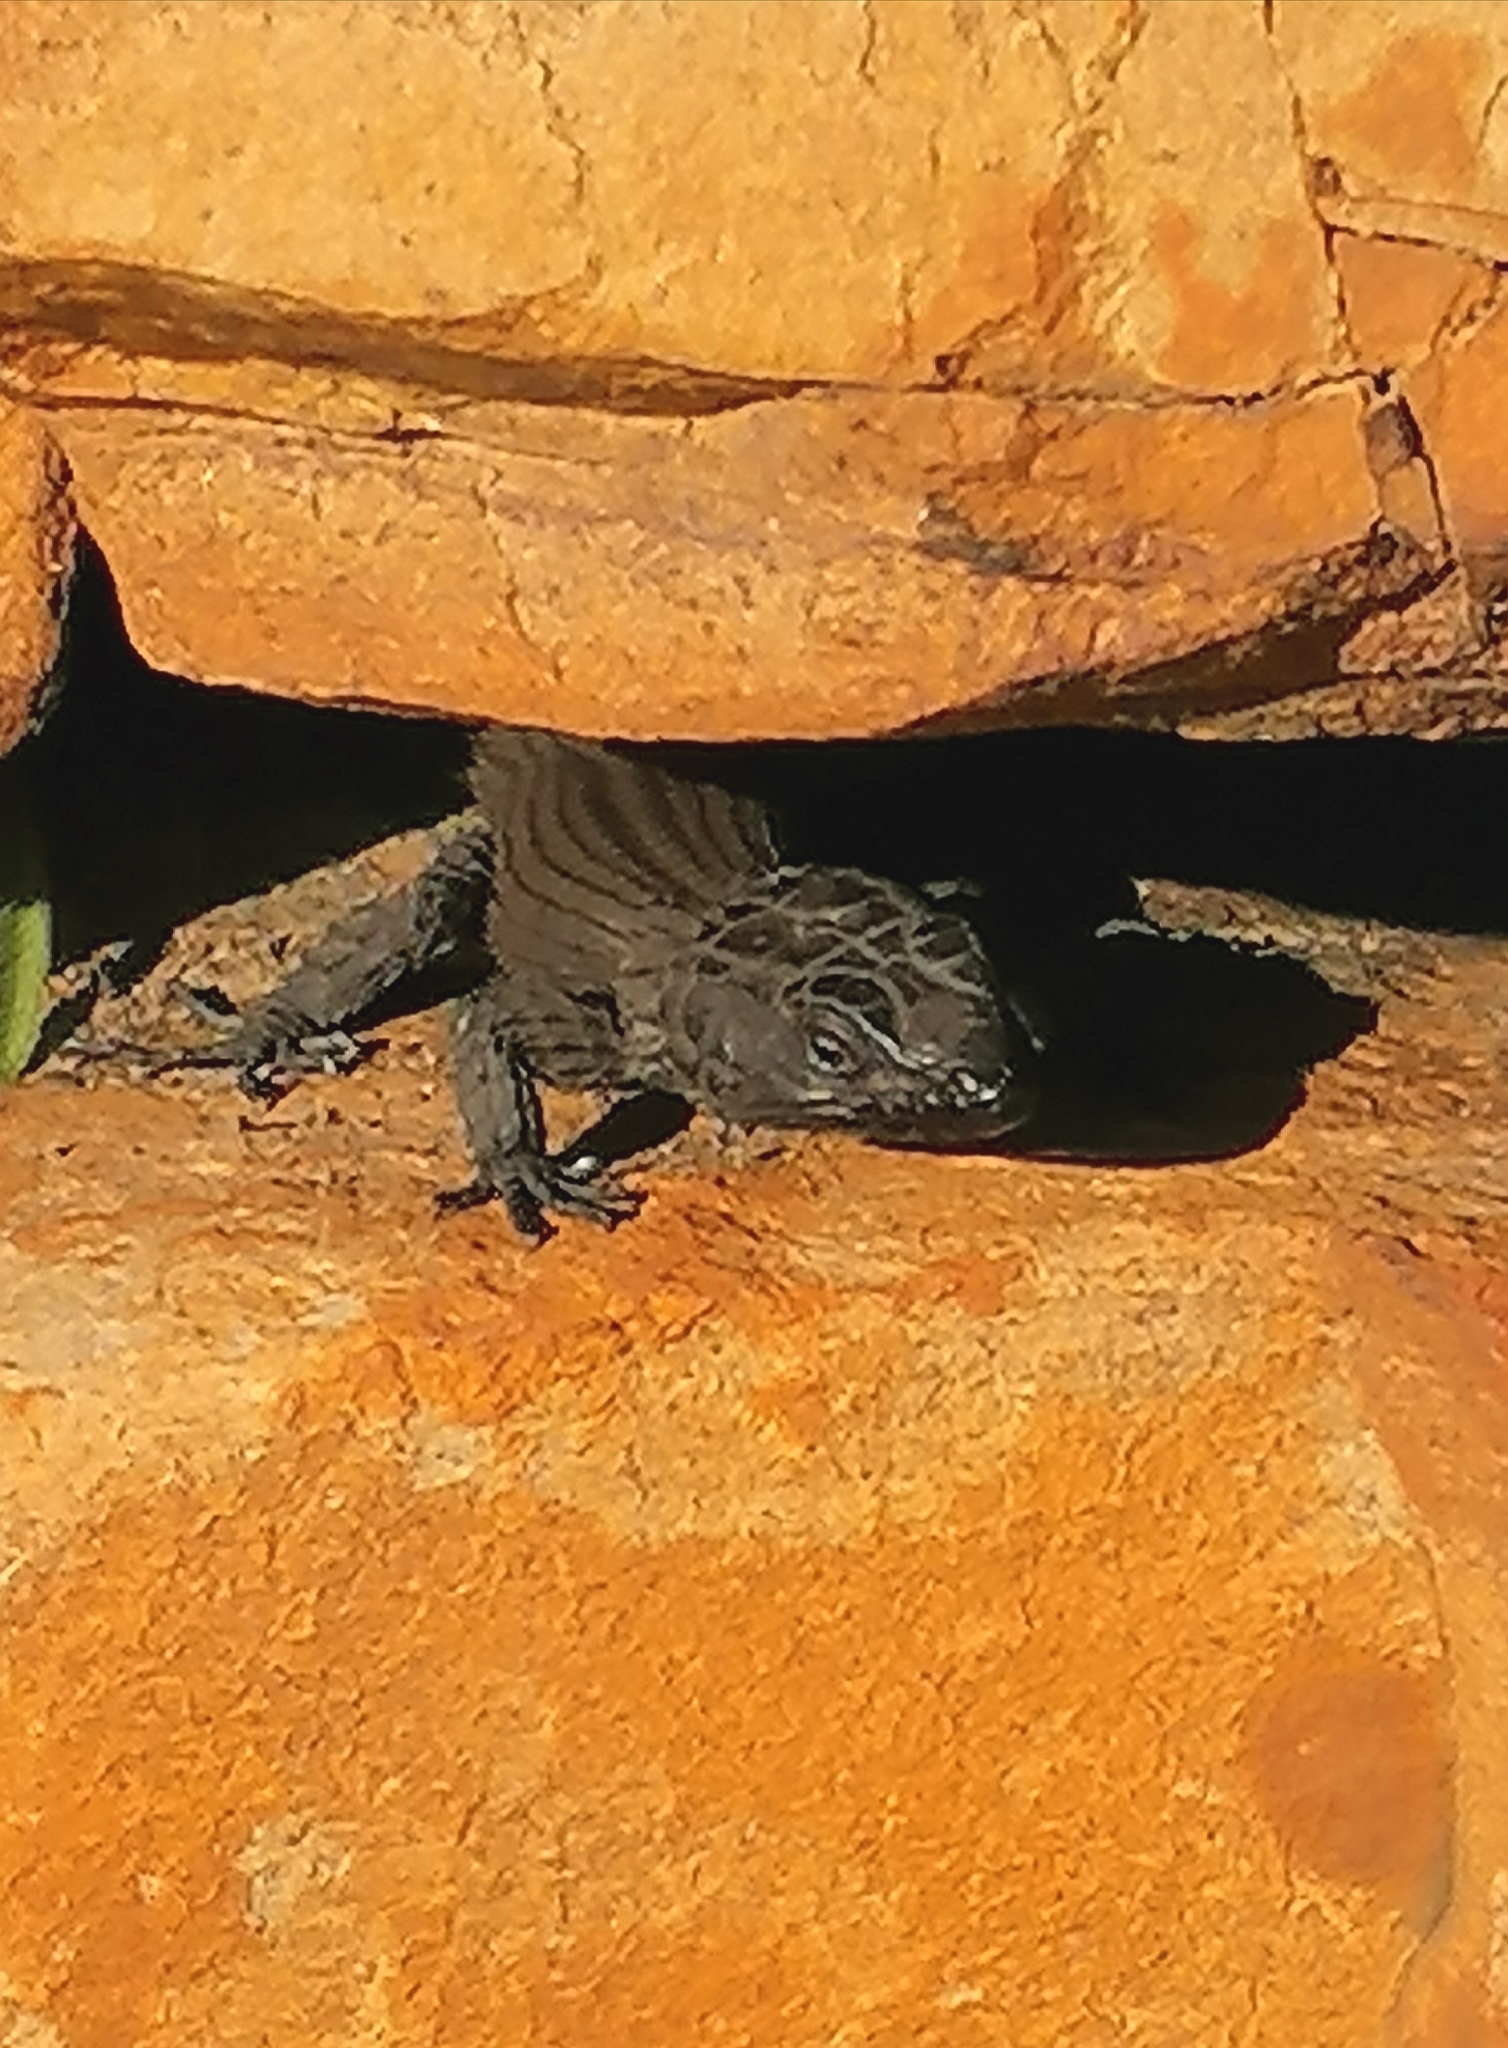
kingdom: Animalia
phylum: Chordata
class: Squamata
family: Cordylidae
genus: Cordylus
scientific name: Cordylus niger
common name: Black girdled lizard
